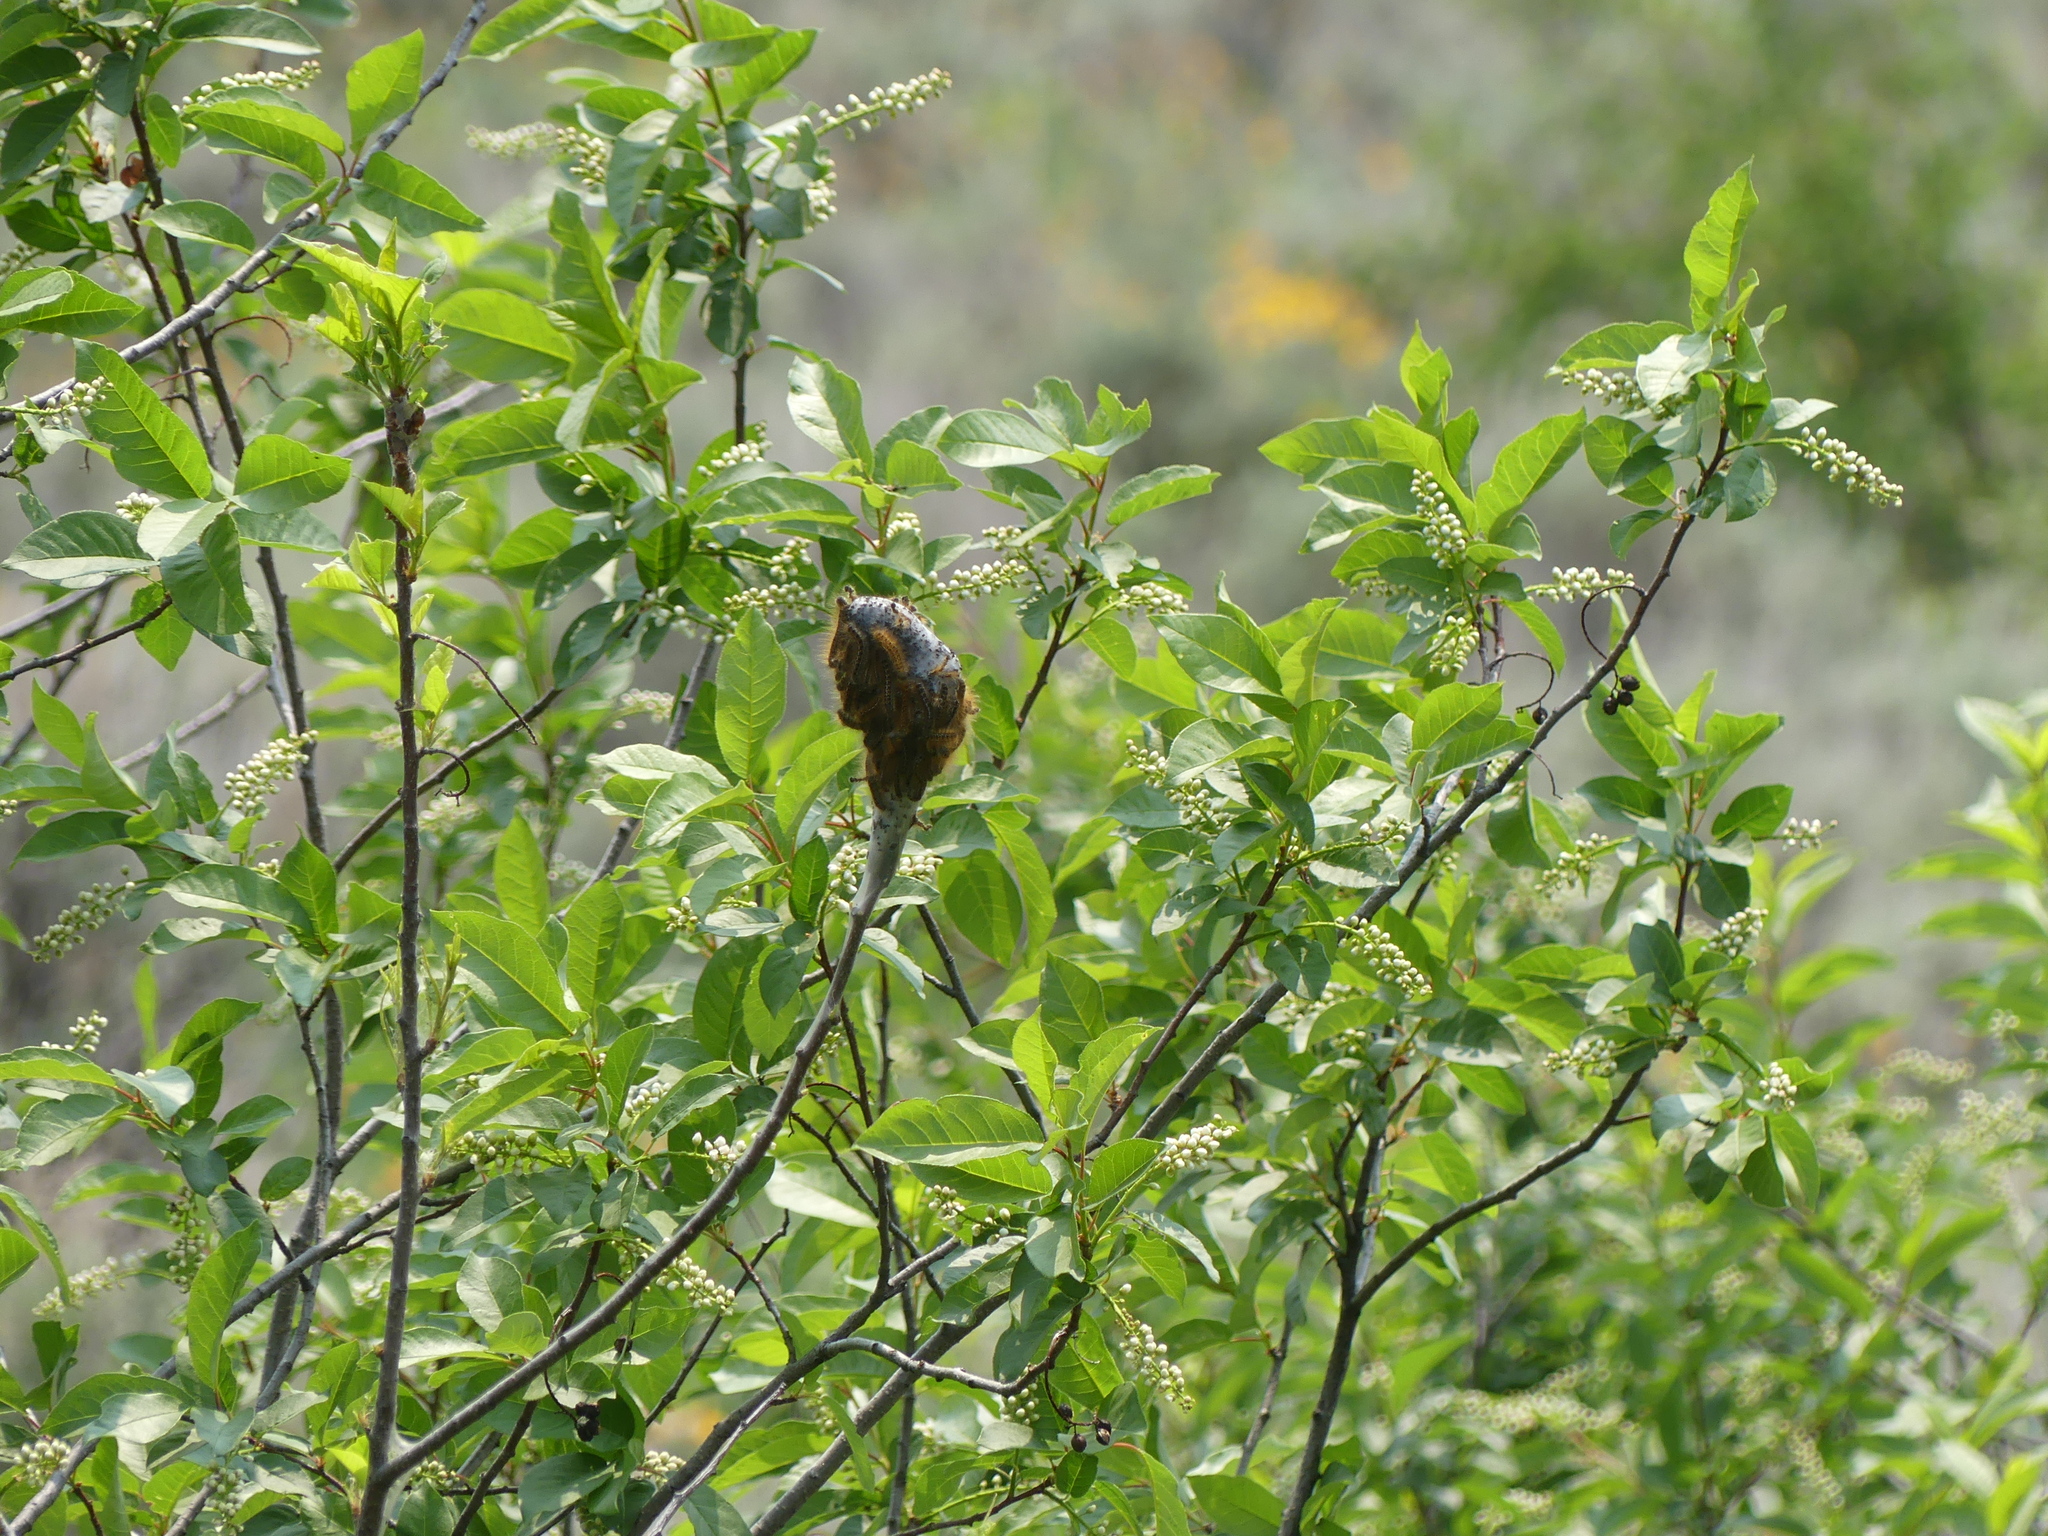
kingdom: Animalia
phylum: Arthropoda
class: Insecta
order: Lepidoptera
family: Lasiocampidae
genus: Malacosoma
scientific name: Malacosoma californica
